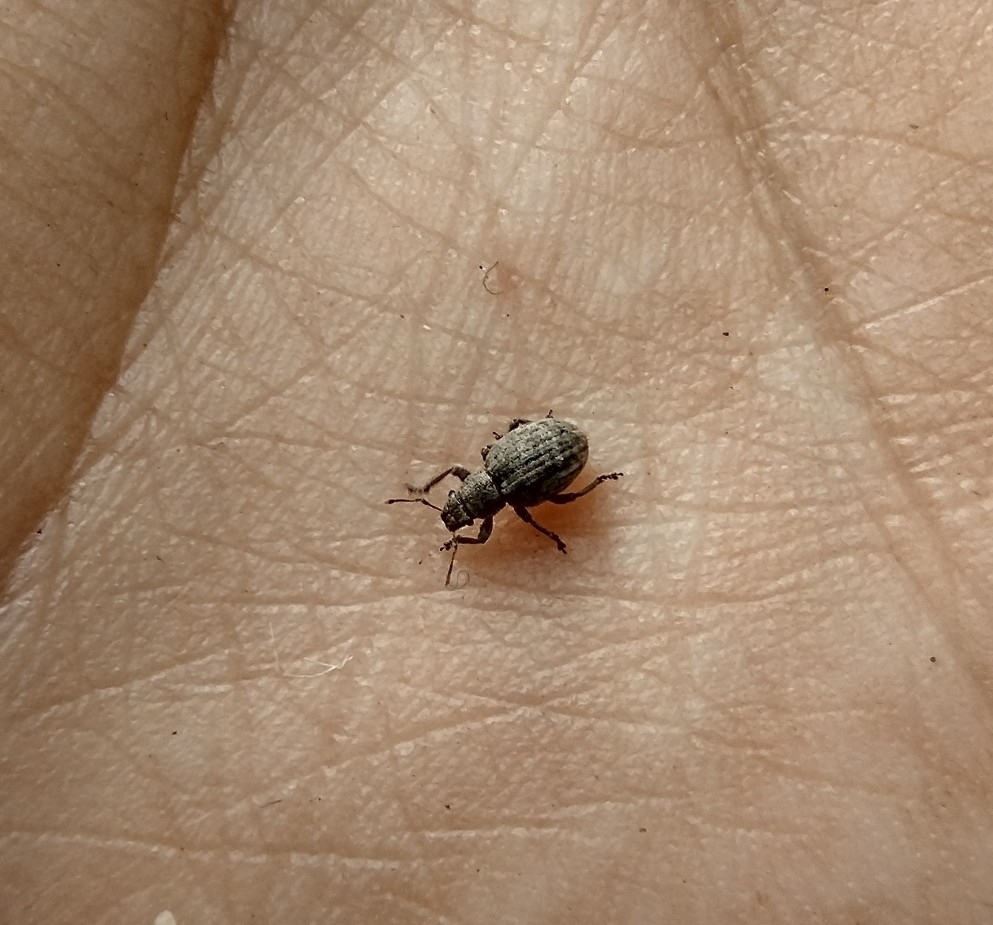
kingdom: Animalia
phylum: Arthropoda
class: Insecta
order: Coleoptera
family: Curculionidae
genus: Strophosoma
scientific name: Strophosoma capitatum
